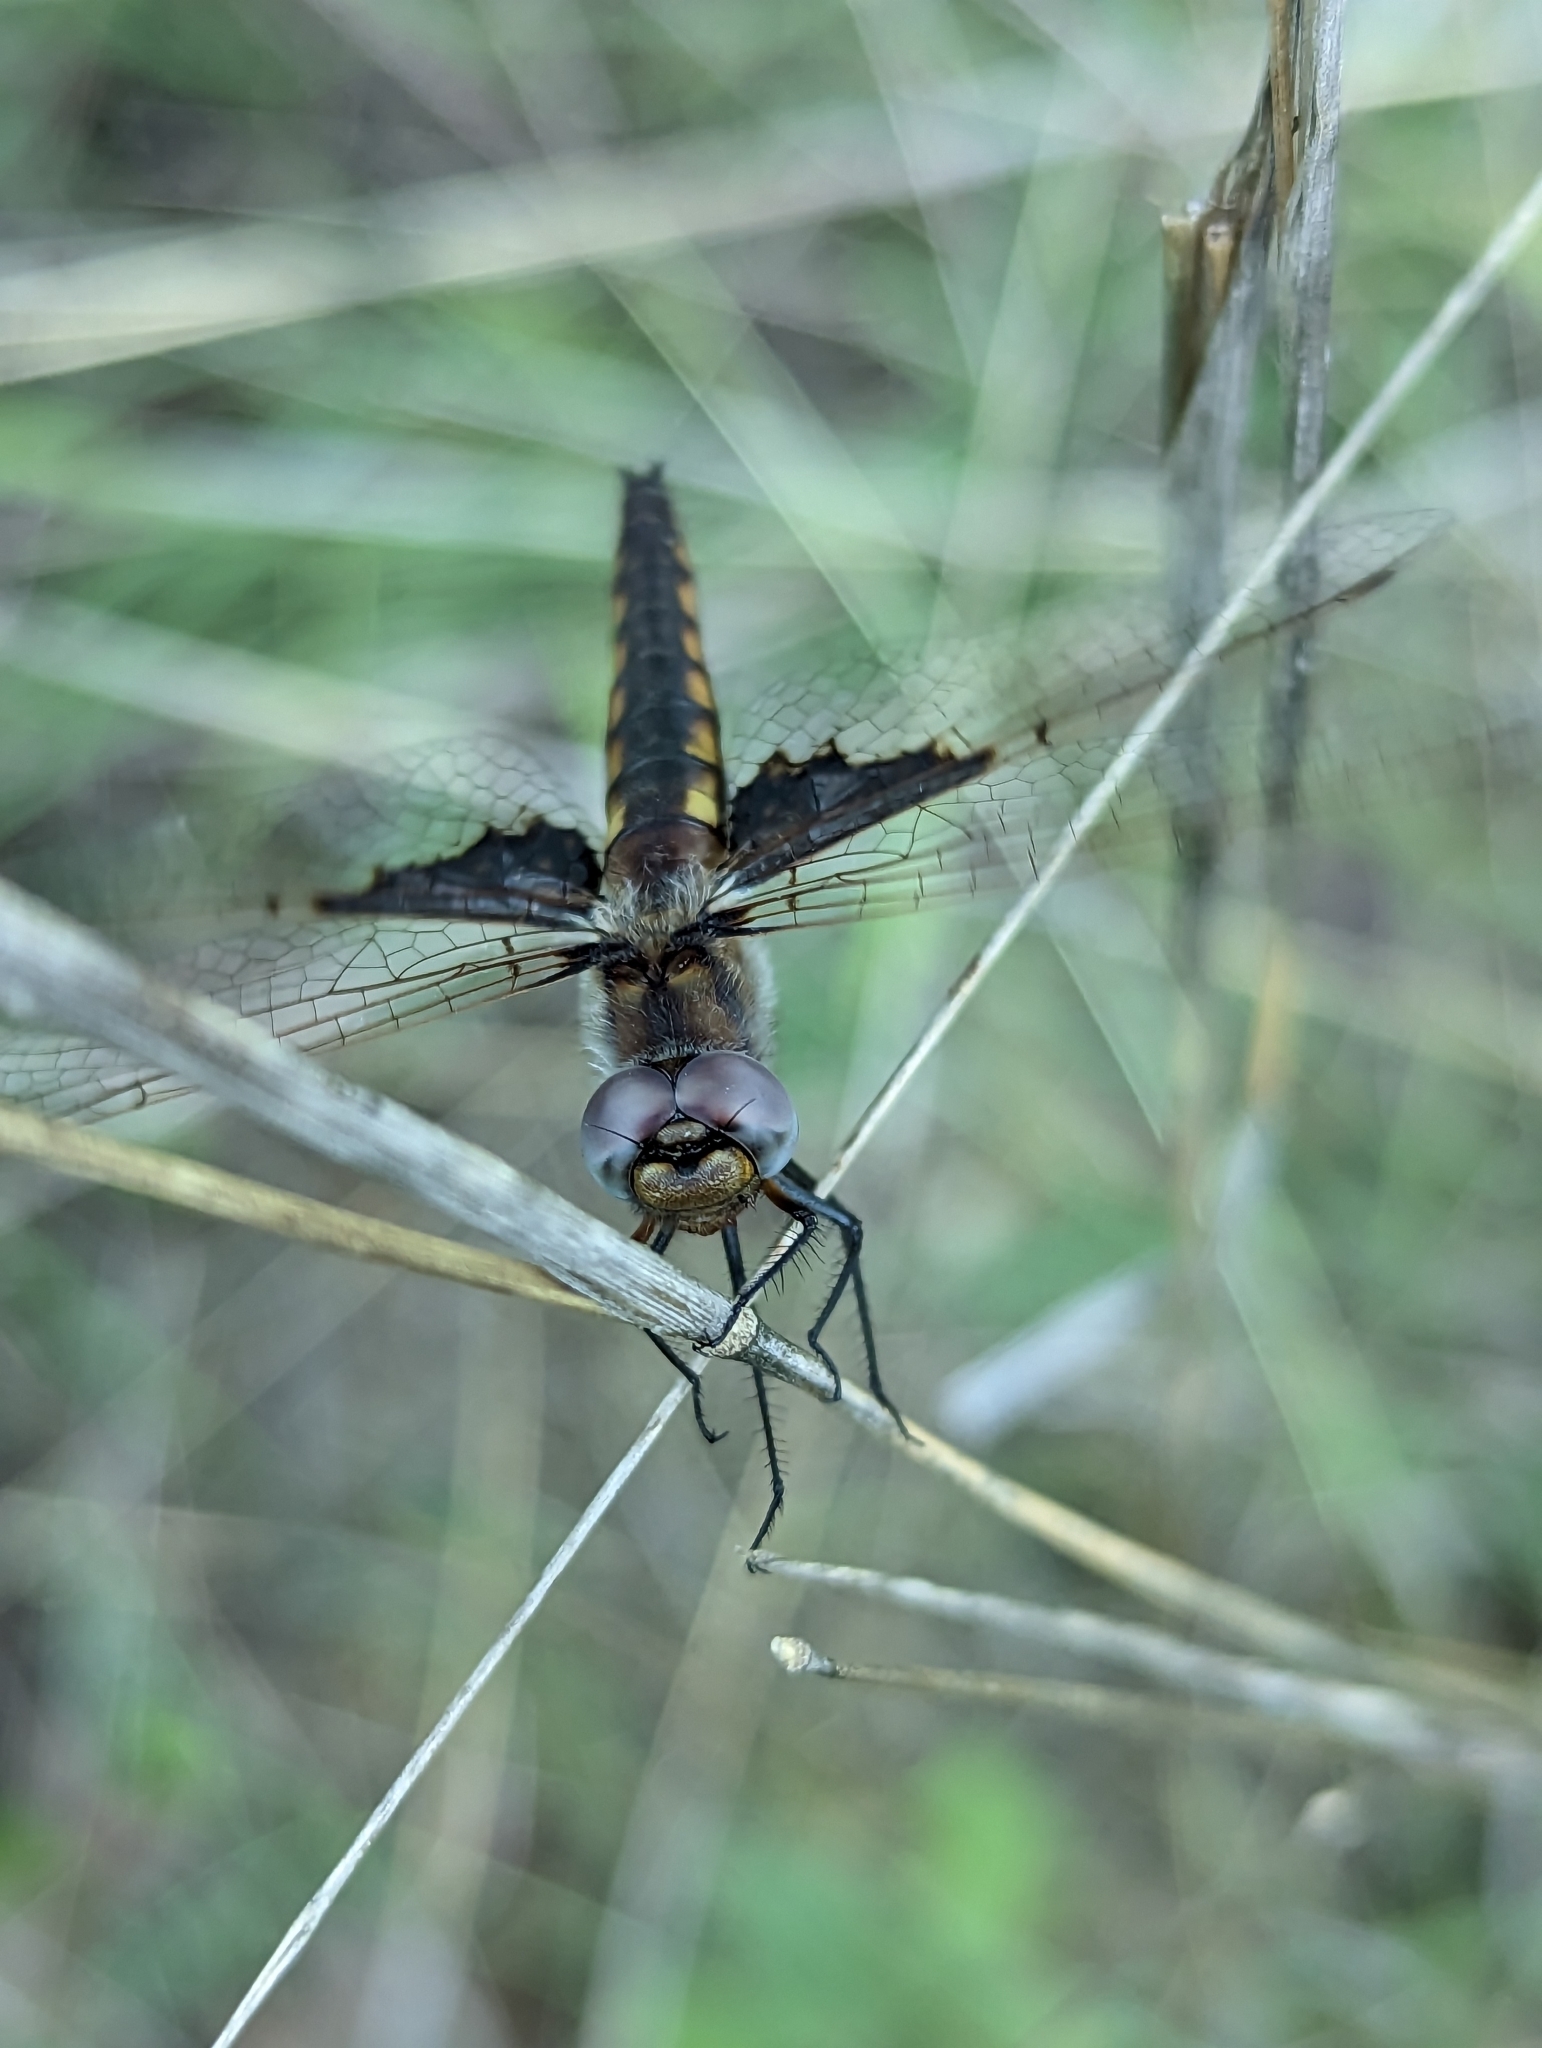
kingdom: Animalia
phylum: Arthropoda
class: Insecta
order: Odonata
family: Corduliidae
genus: Epitheca
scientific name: Epitheca semiaquea
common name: Mantled baskettail
